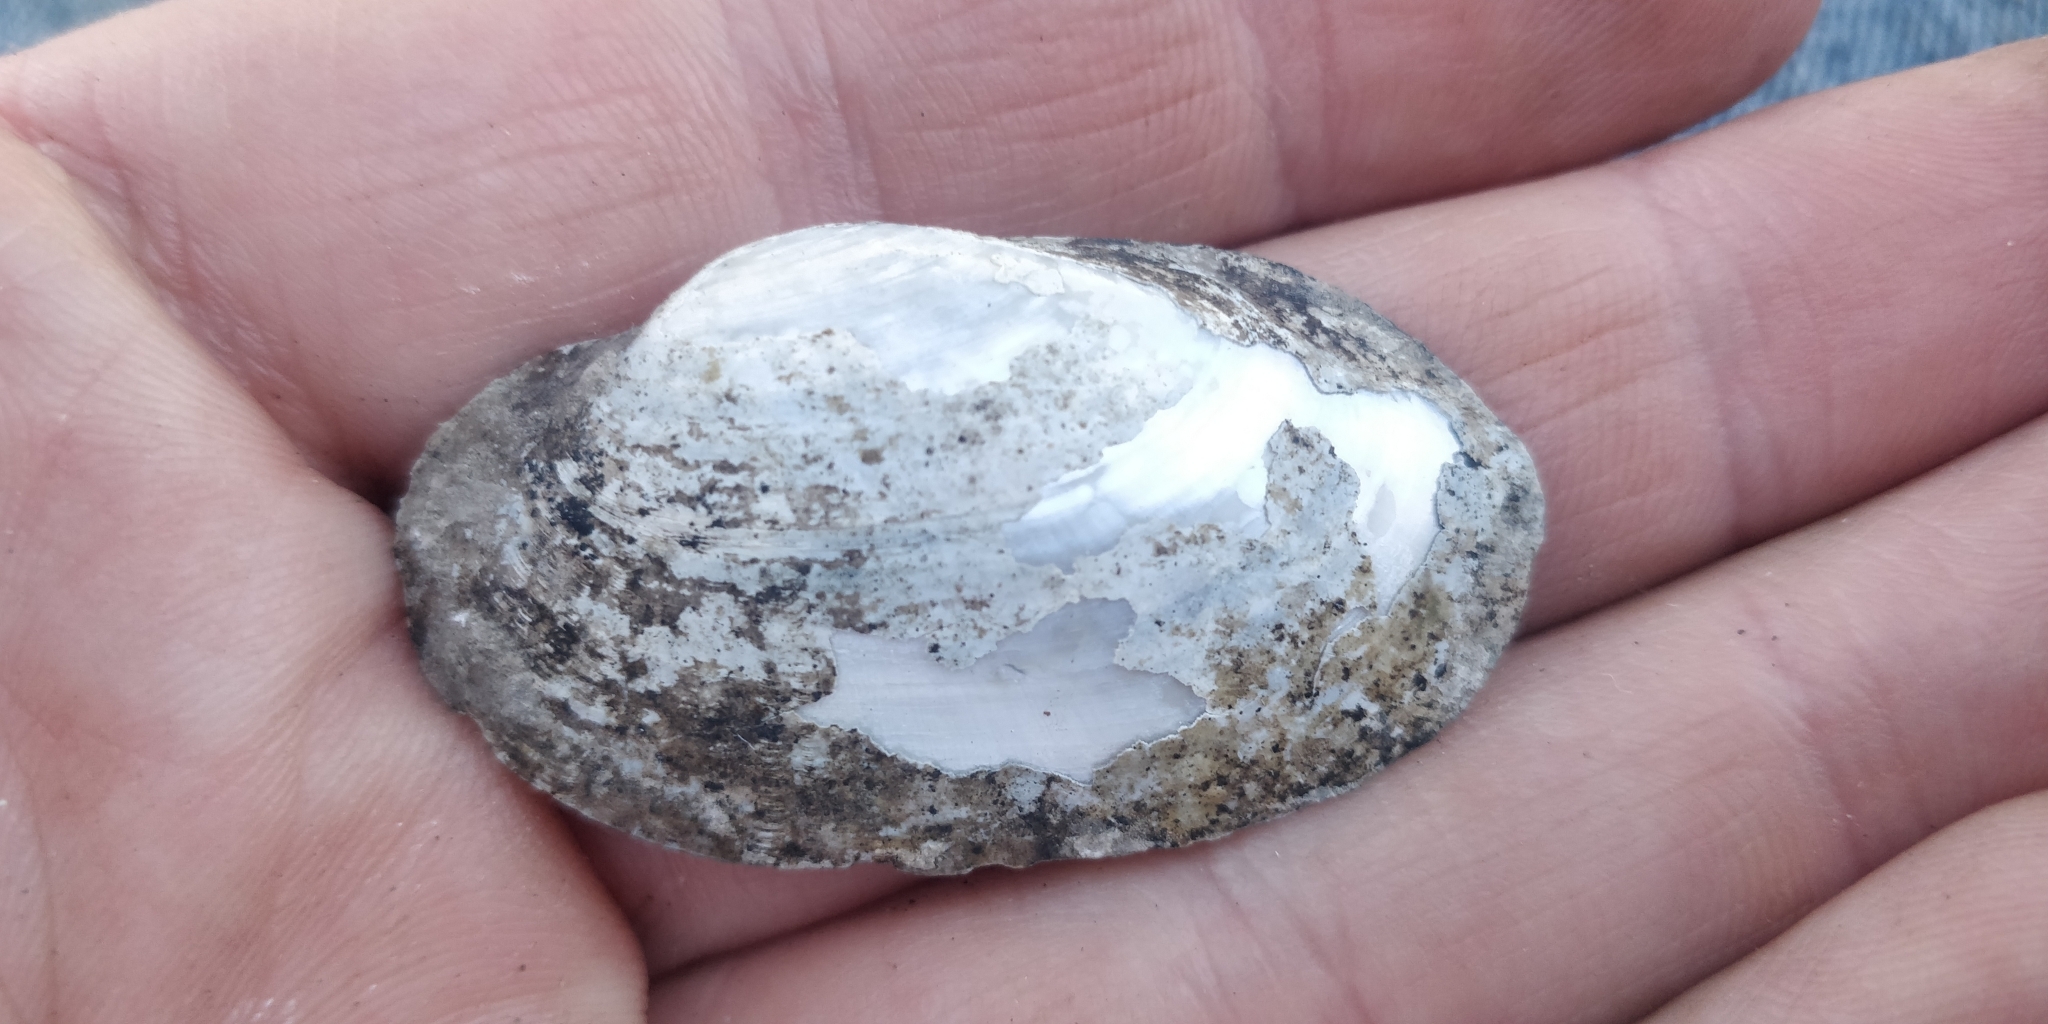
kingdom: Animalia
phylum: Mollusca
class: Bivalvia
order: Unionida
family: Unionidae
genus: Lampsilis
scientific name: Lampsilis siliquoidea
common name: Fatmucket
